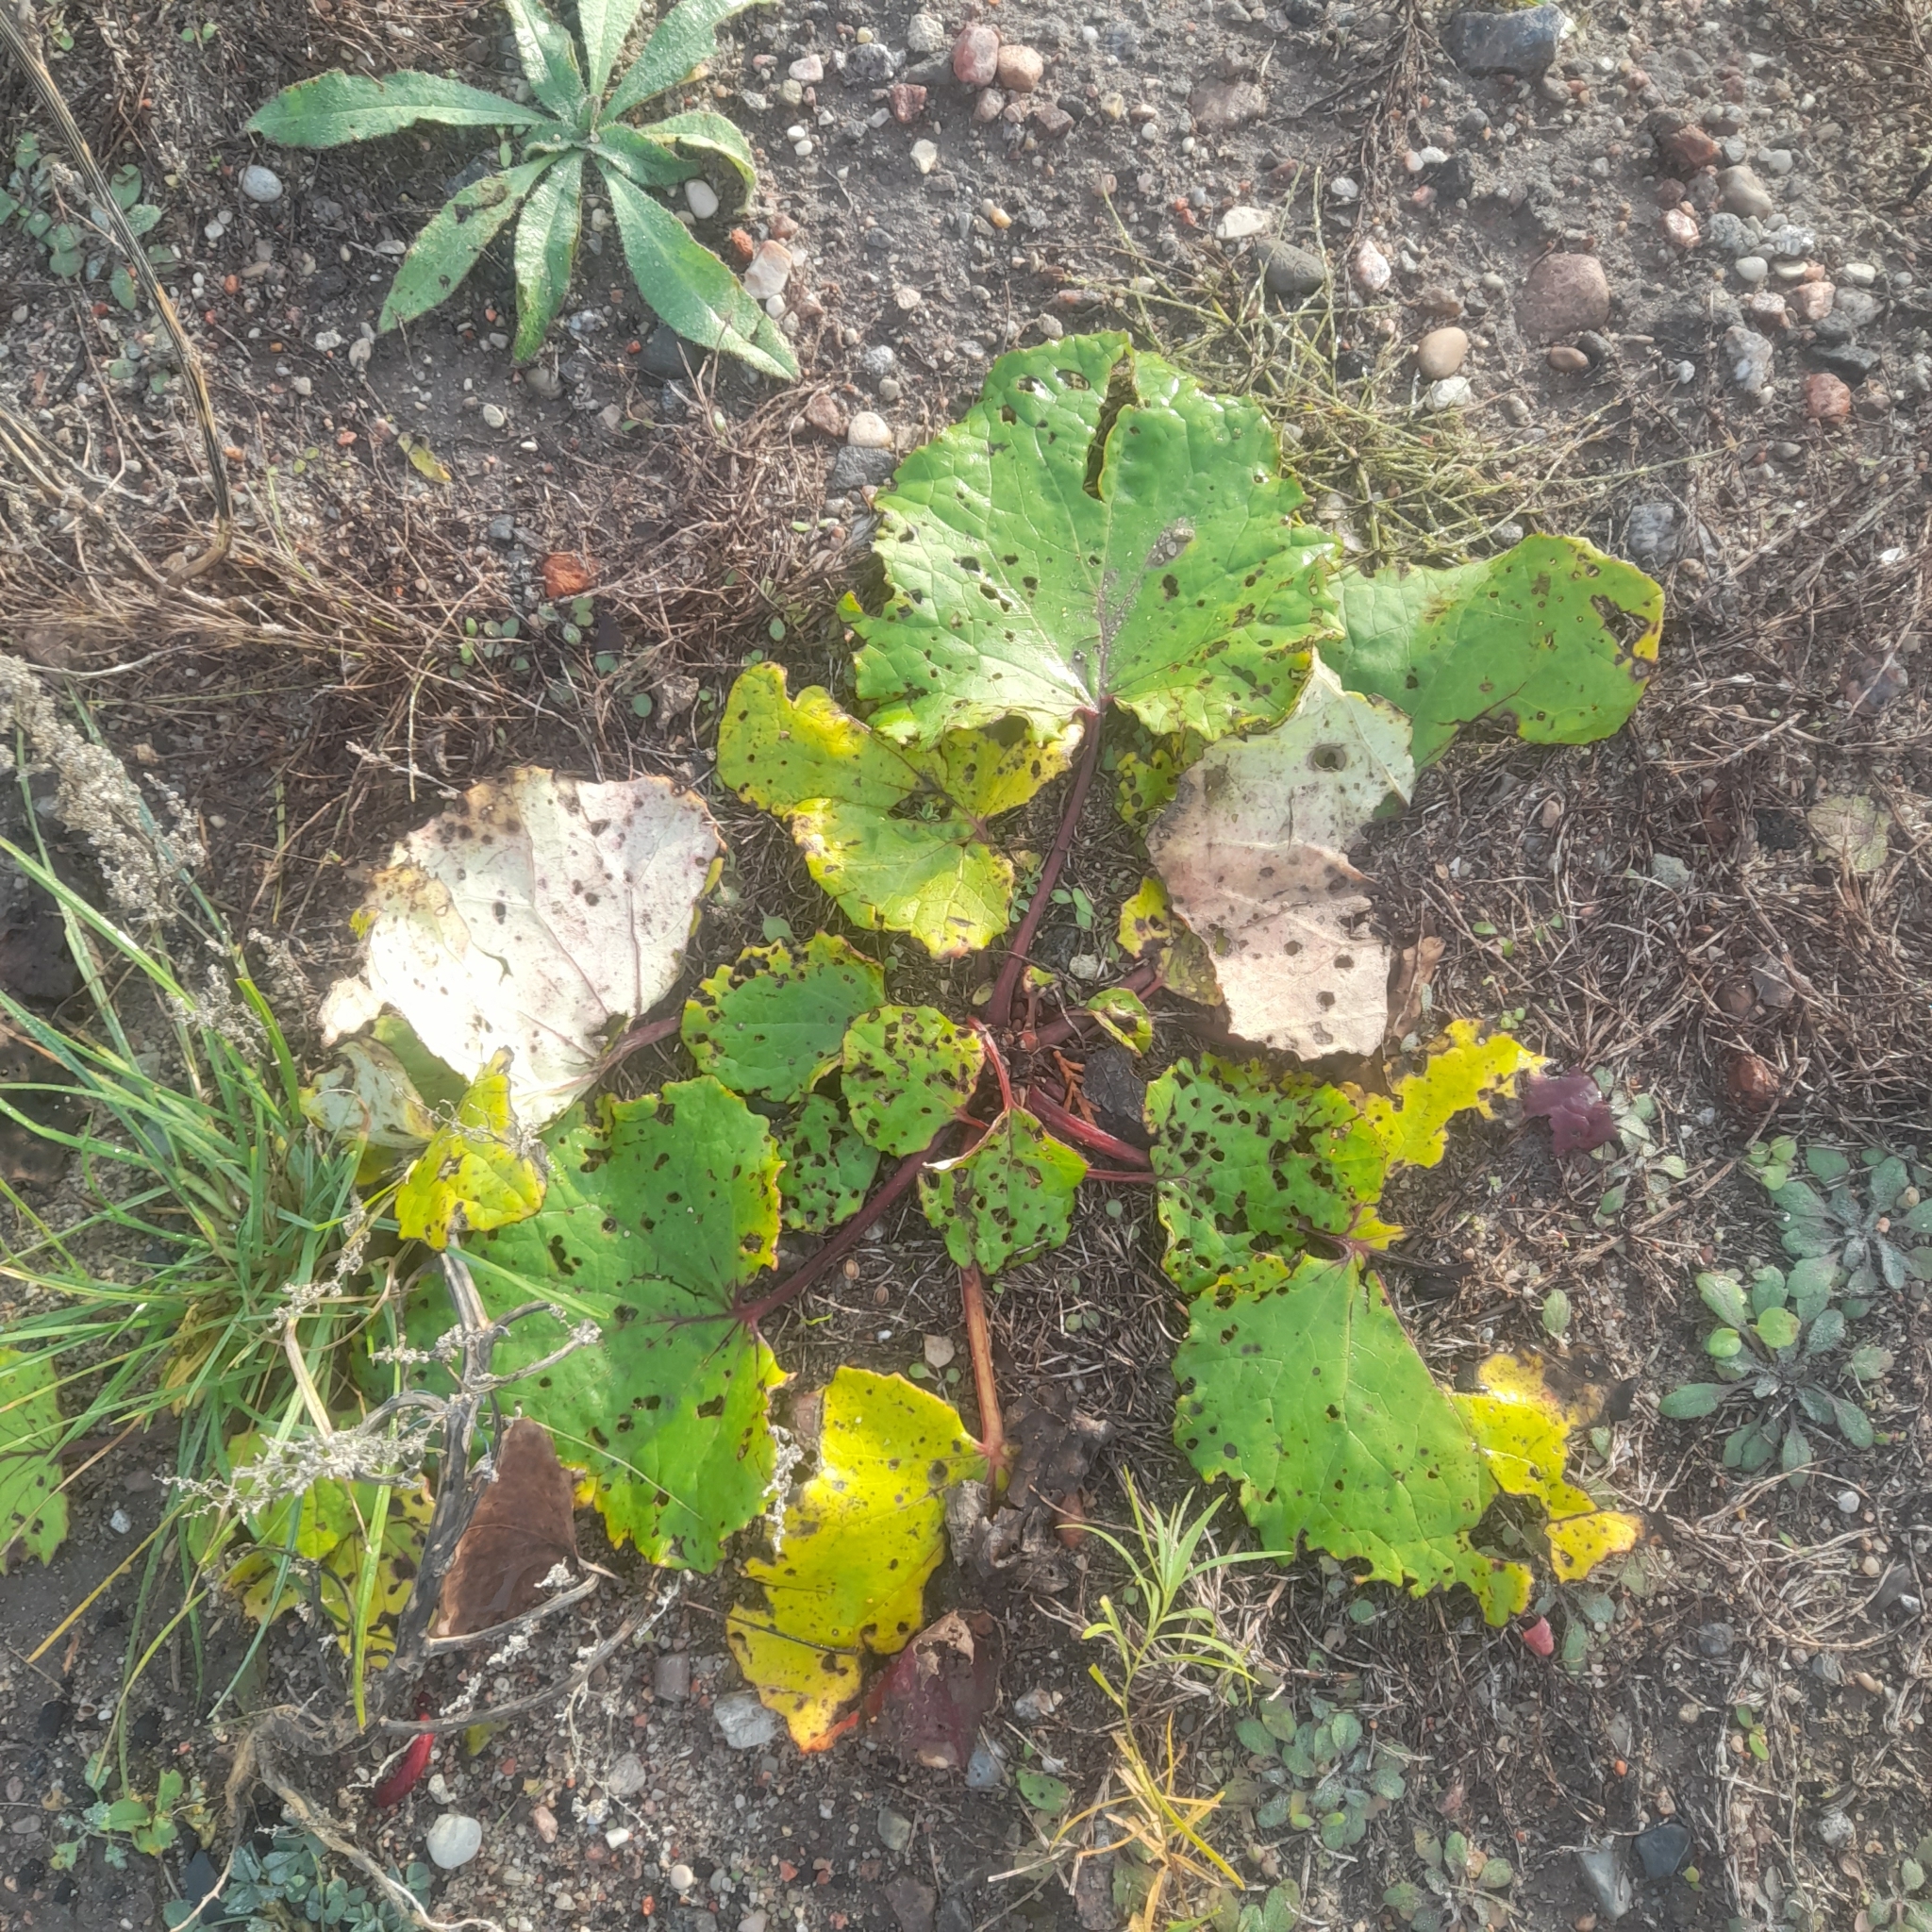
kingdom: Plantae
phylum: Tracheophyta
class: Magnoliopsida
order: Asterales
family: Asteraceae
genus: Tussilago
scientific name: Tussilago farfara
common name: Coltsfoot
